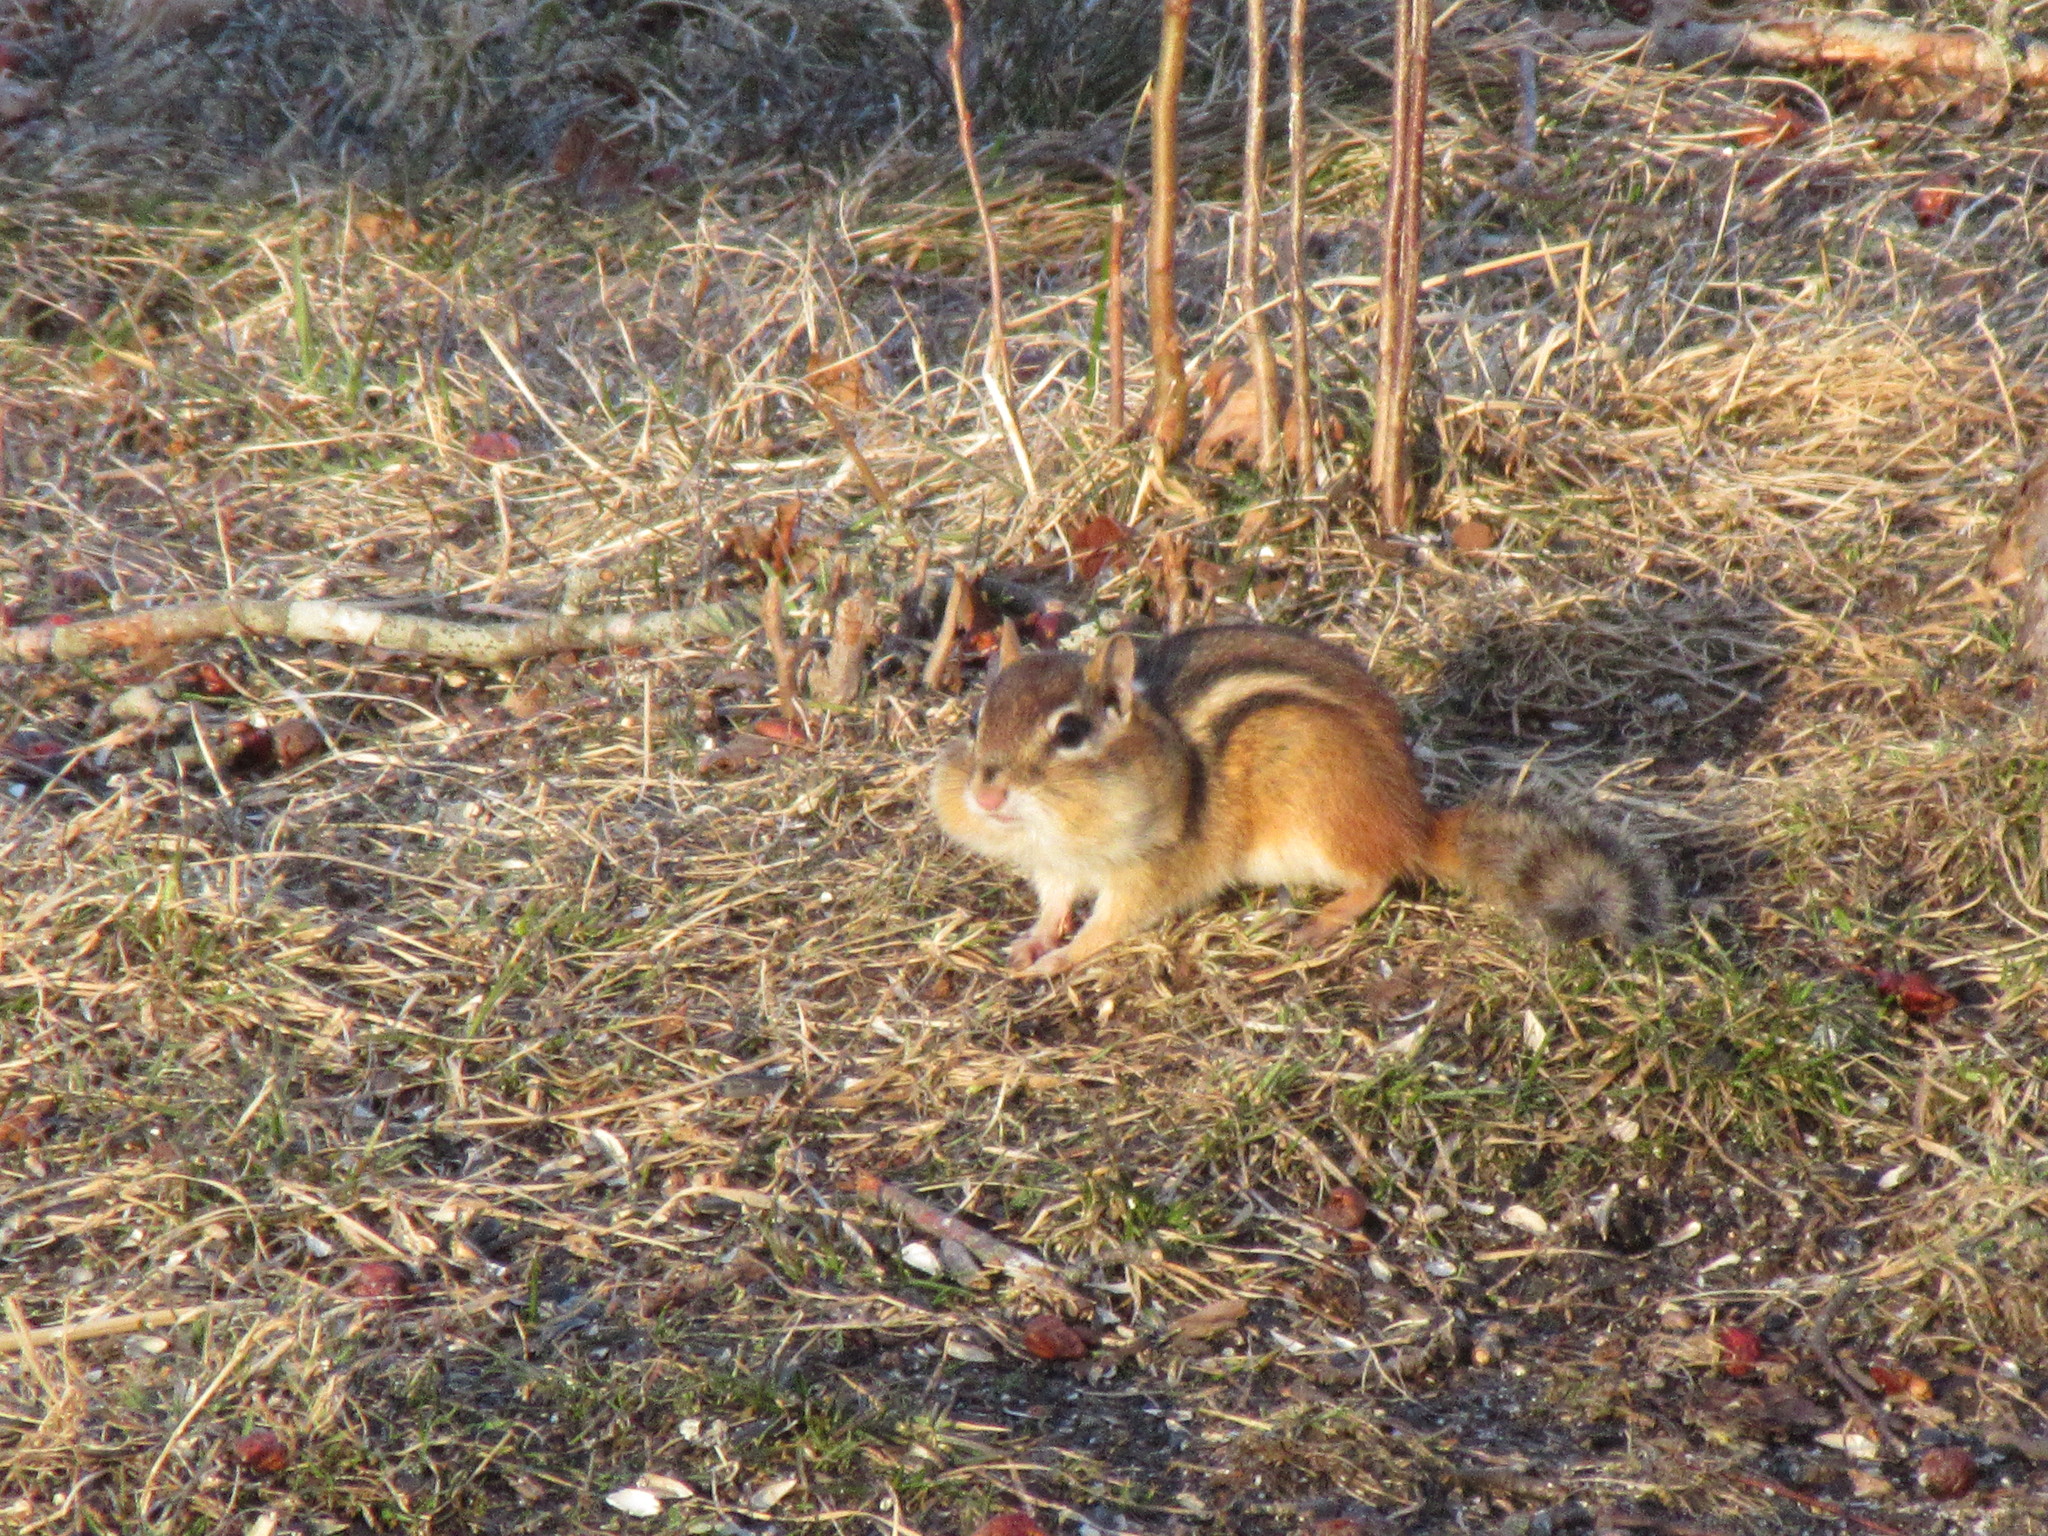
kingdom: Animalia
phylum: Chordata
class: Mammalia
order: Rodentia
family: Sciuridae
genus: Tamias
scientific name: Tamias striatus
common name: Eastern chipmunk
